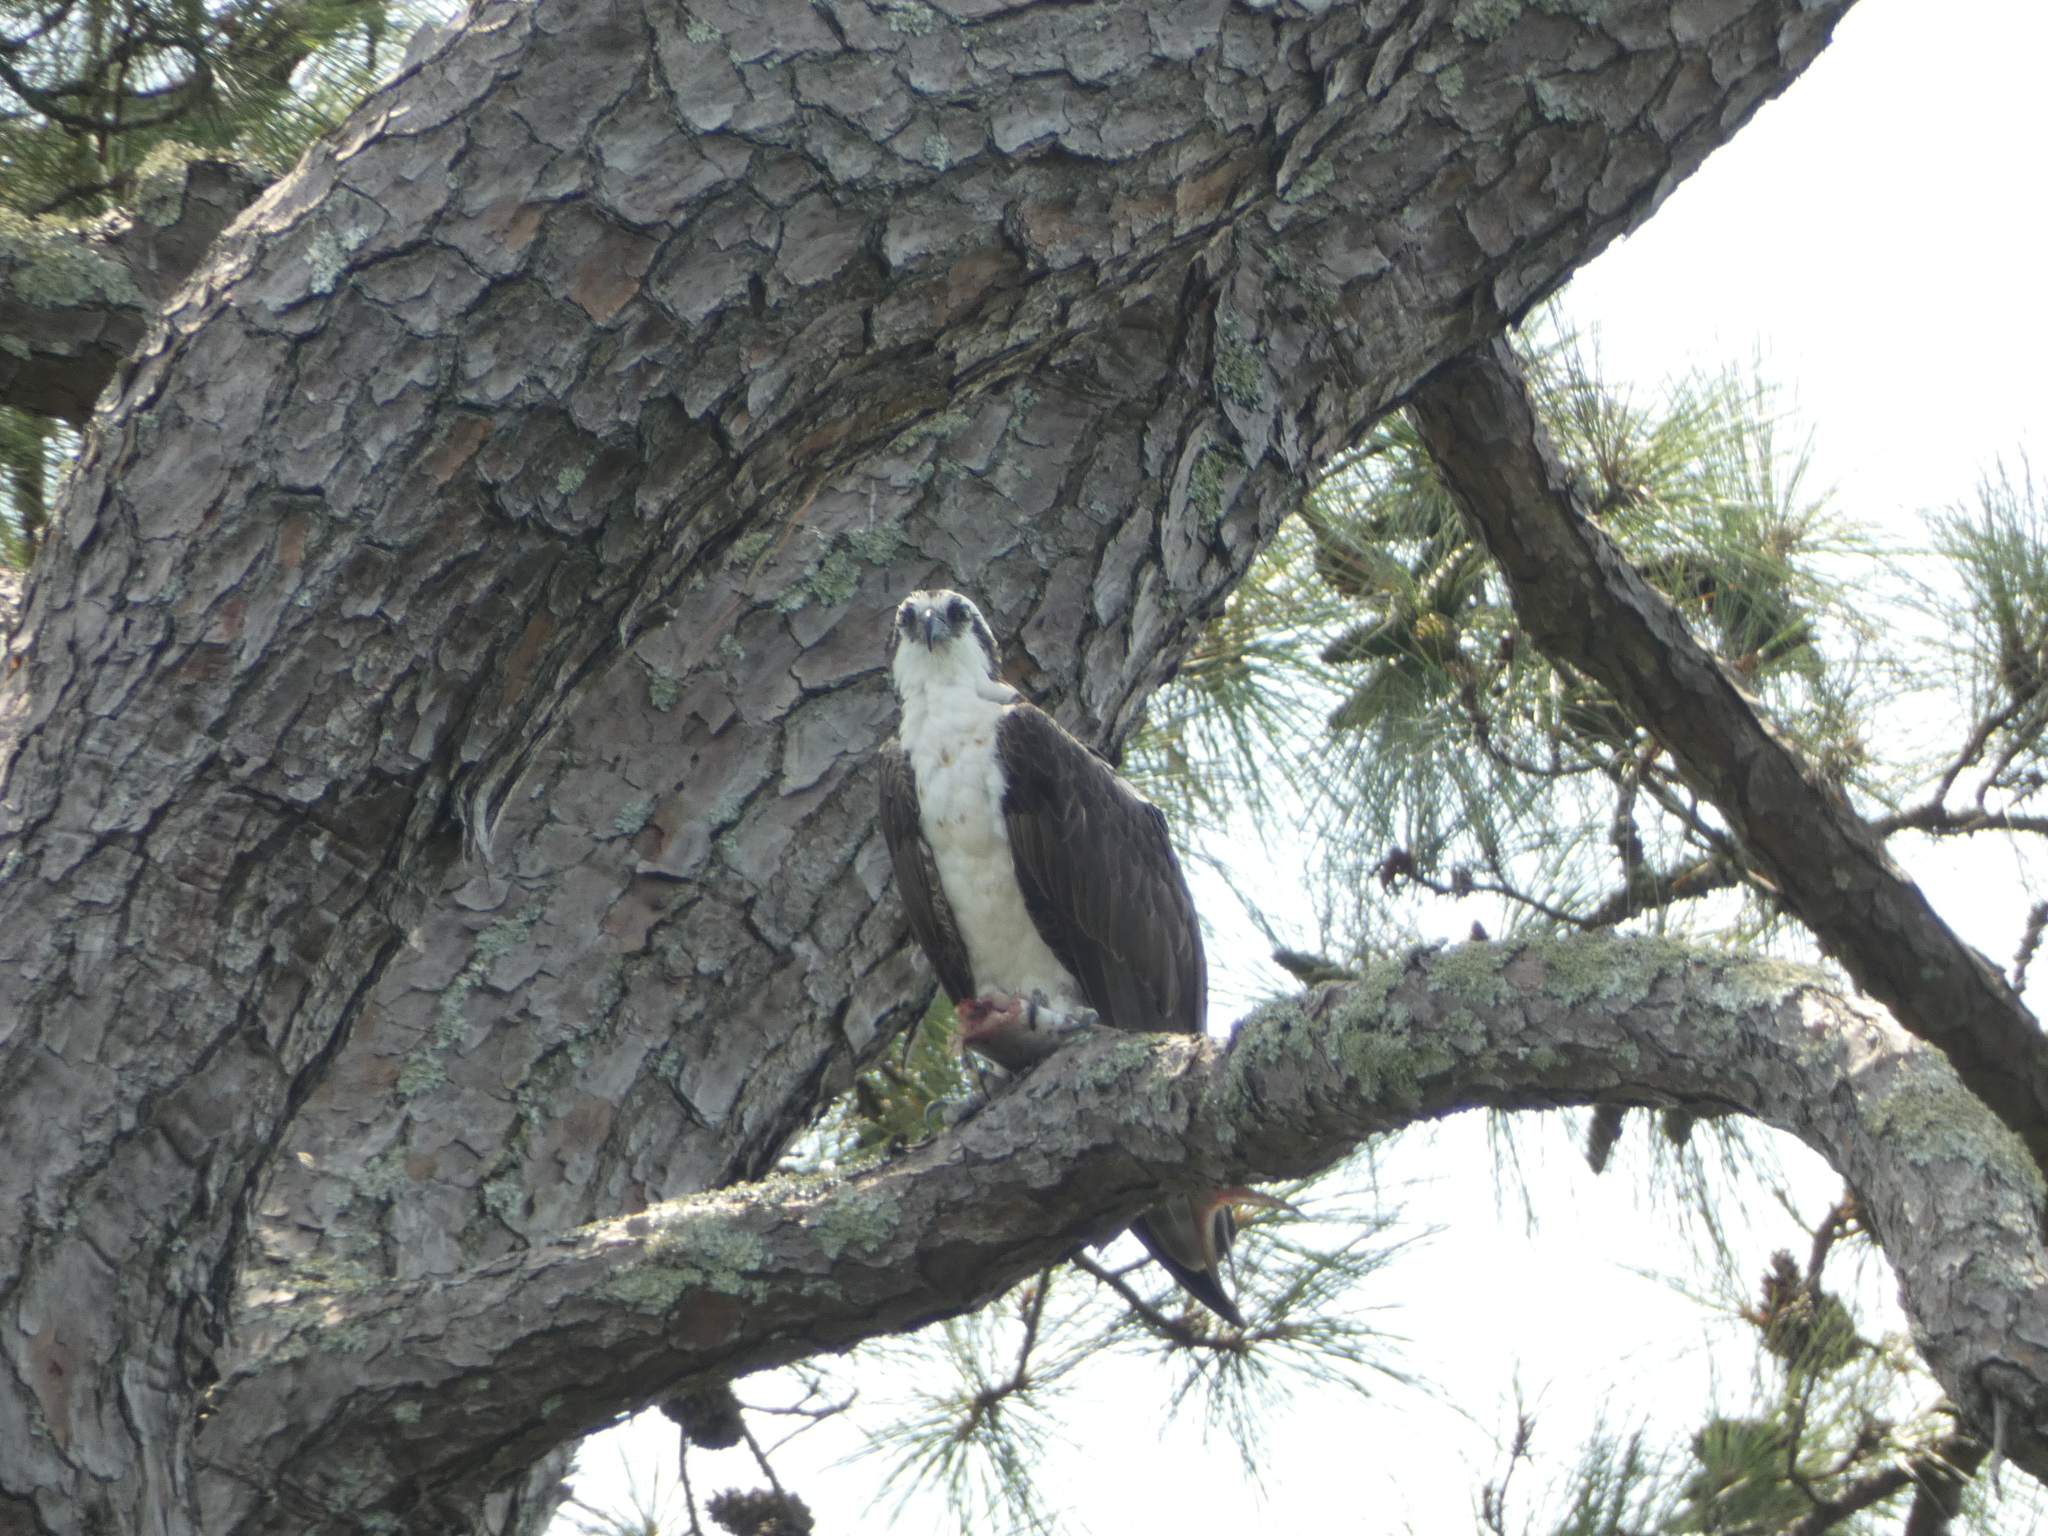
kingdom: Animalia
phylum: Chordata
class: Aves
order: Accipitriformes
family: Pandionidae
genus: Pandion
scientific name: Pandion haliaetus
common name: Osprey
